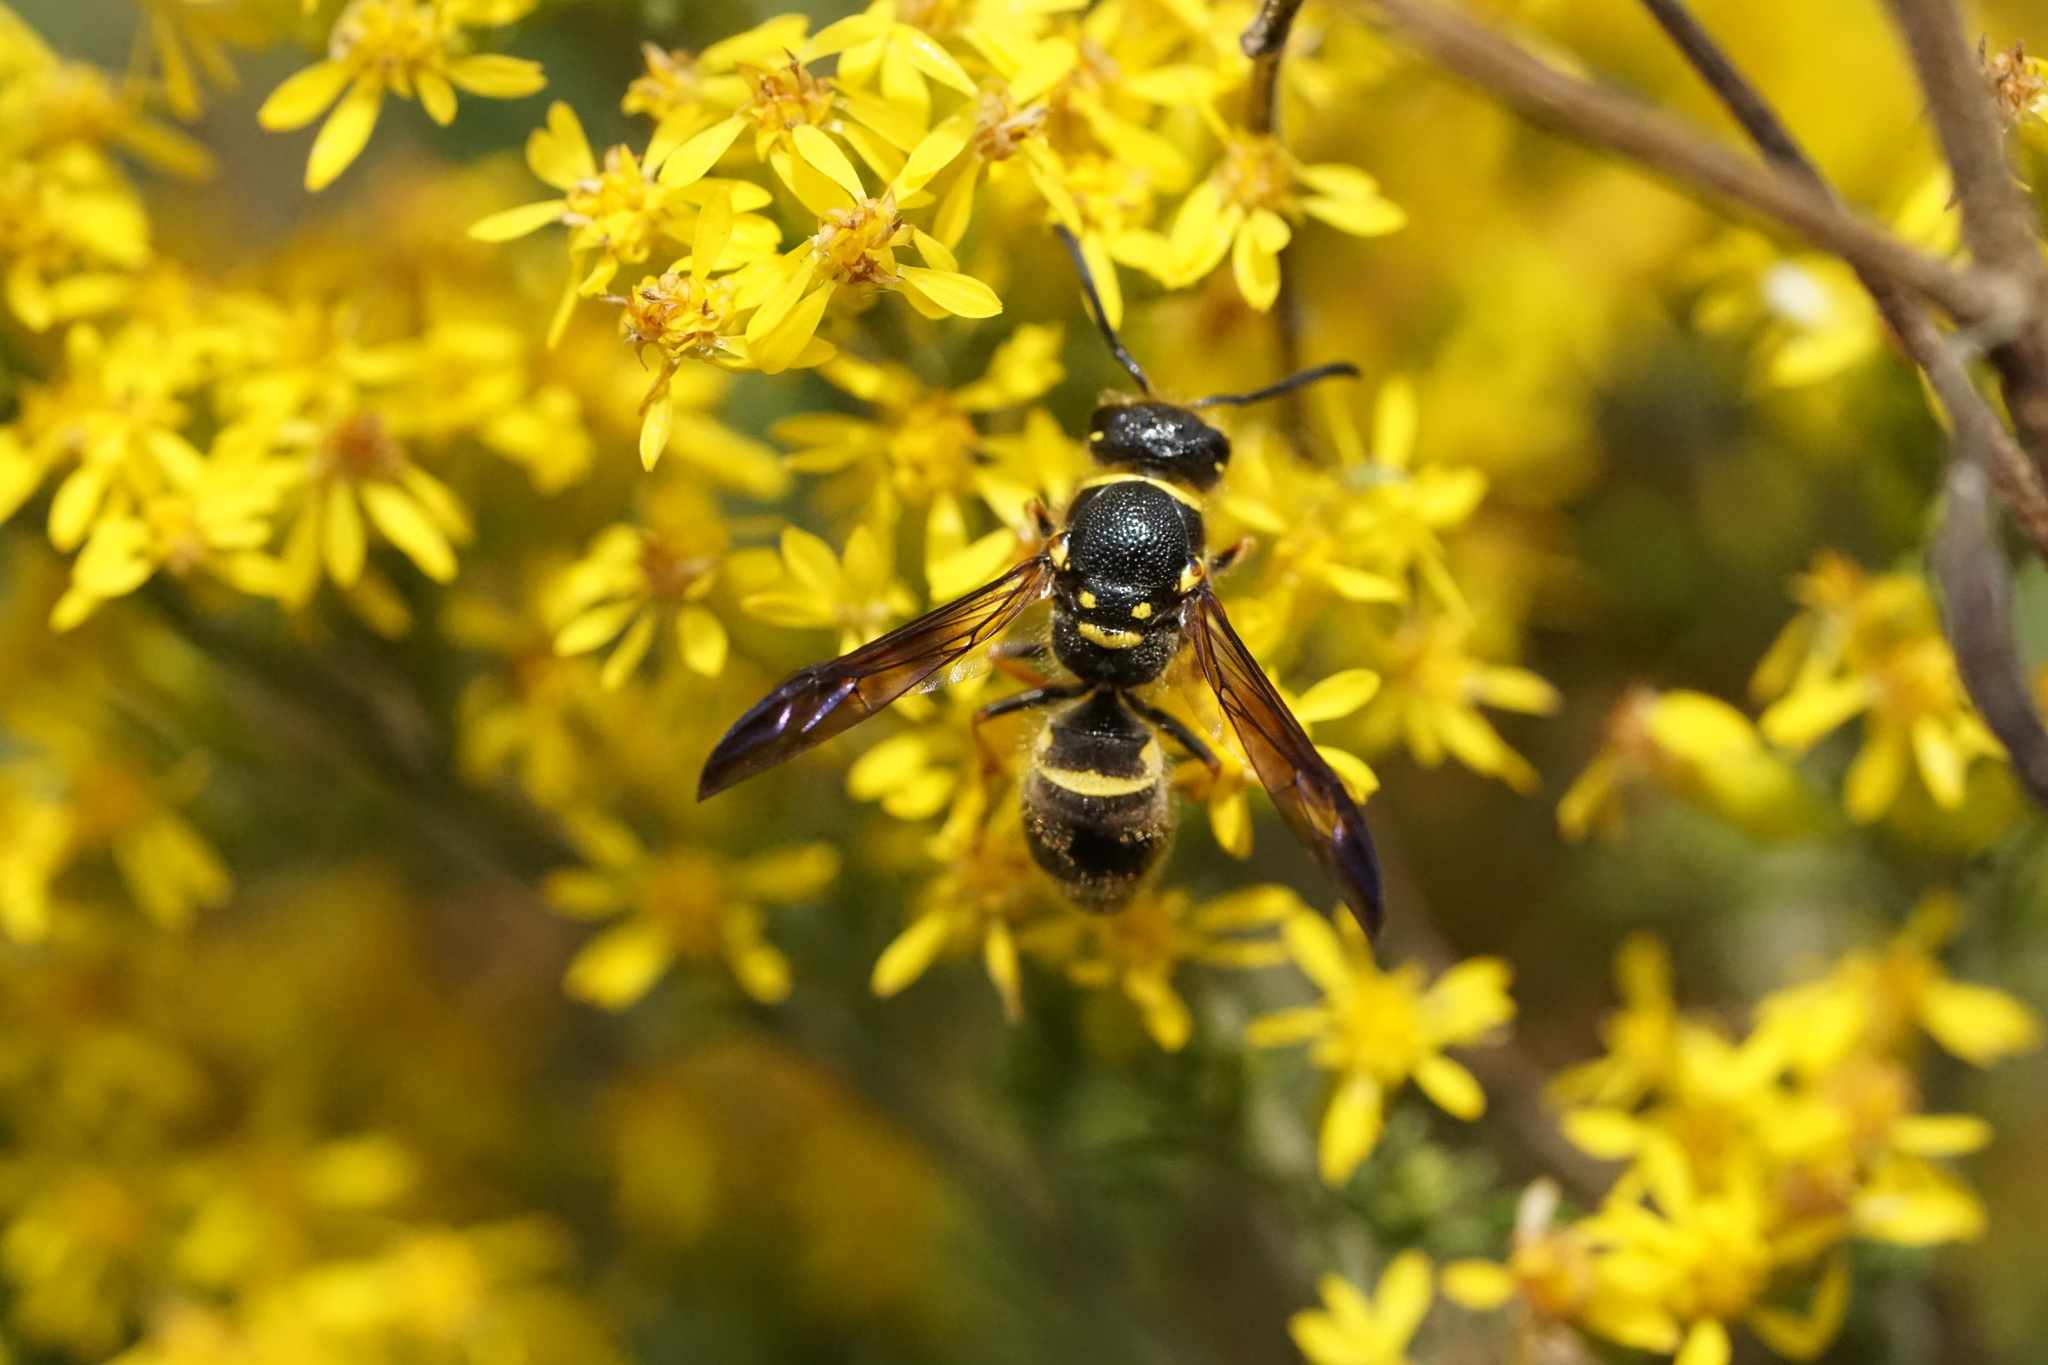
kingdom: Animalia
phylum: Arthropoda
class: Insecta
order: Hymenoptera
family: Vespidae
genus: Ancistrocerus
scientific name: Ancistrocerus campestris
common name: Smiling mason wasp
